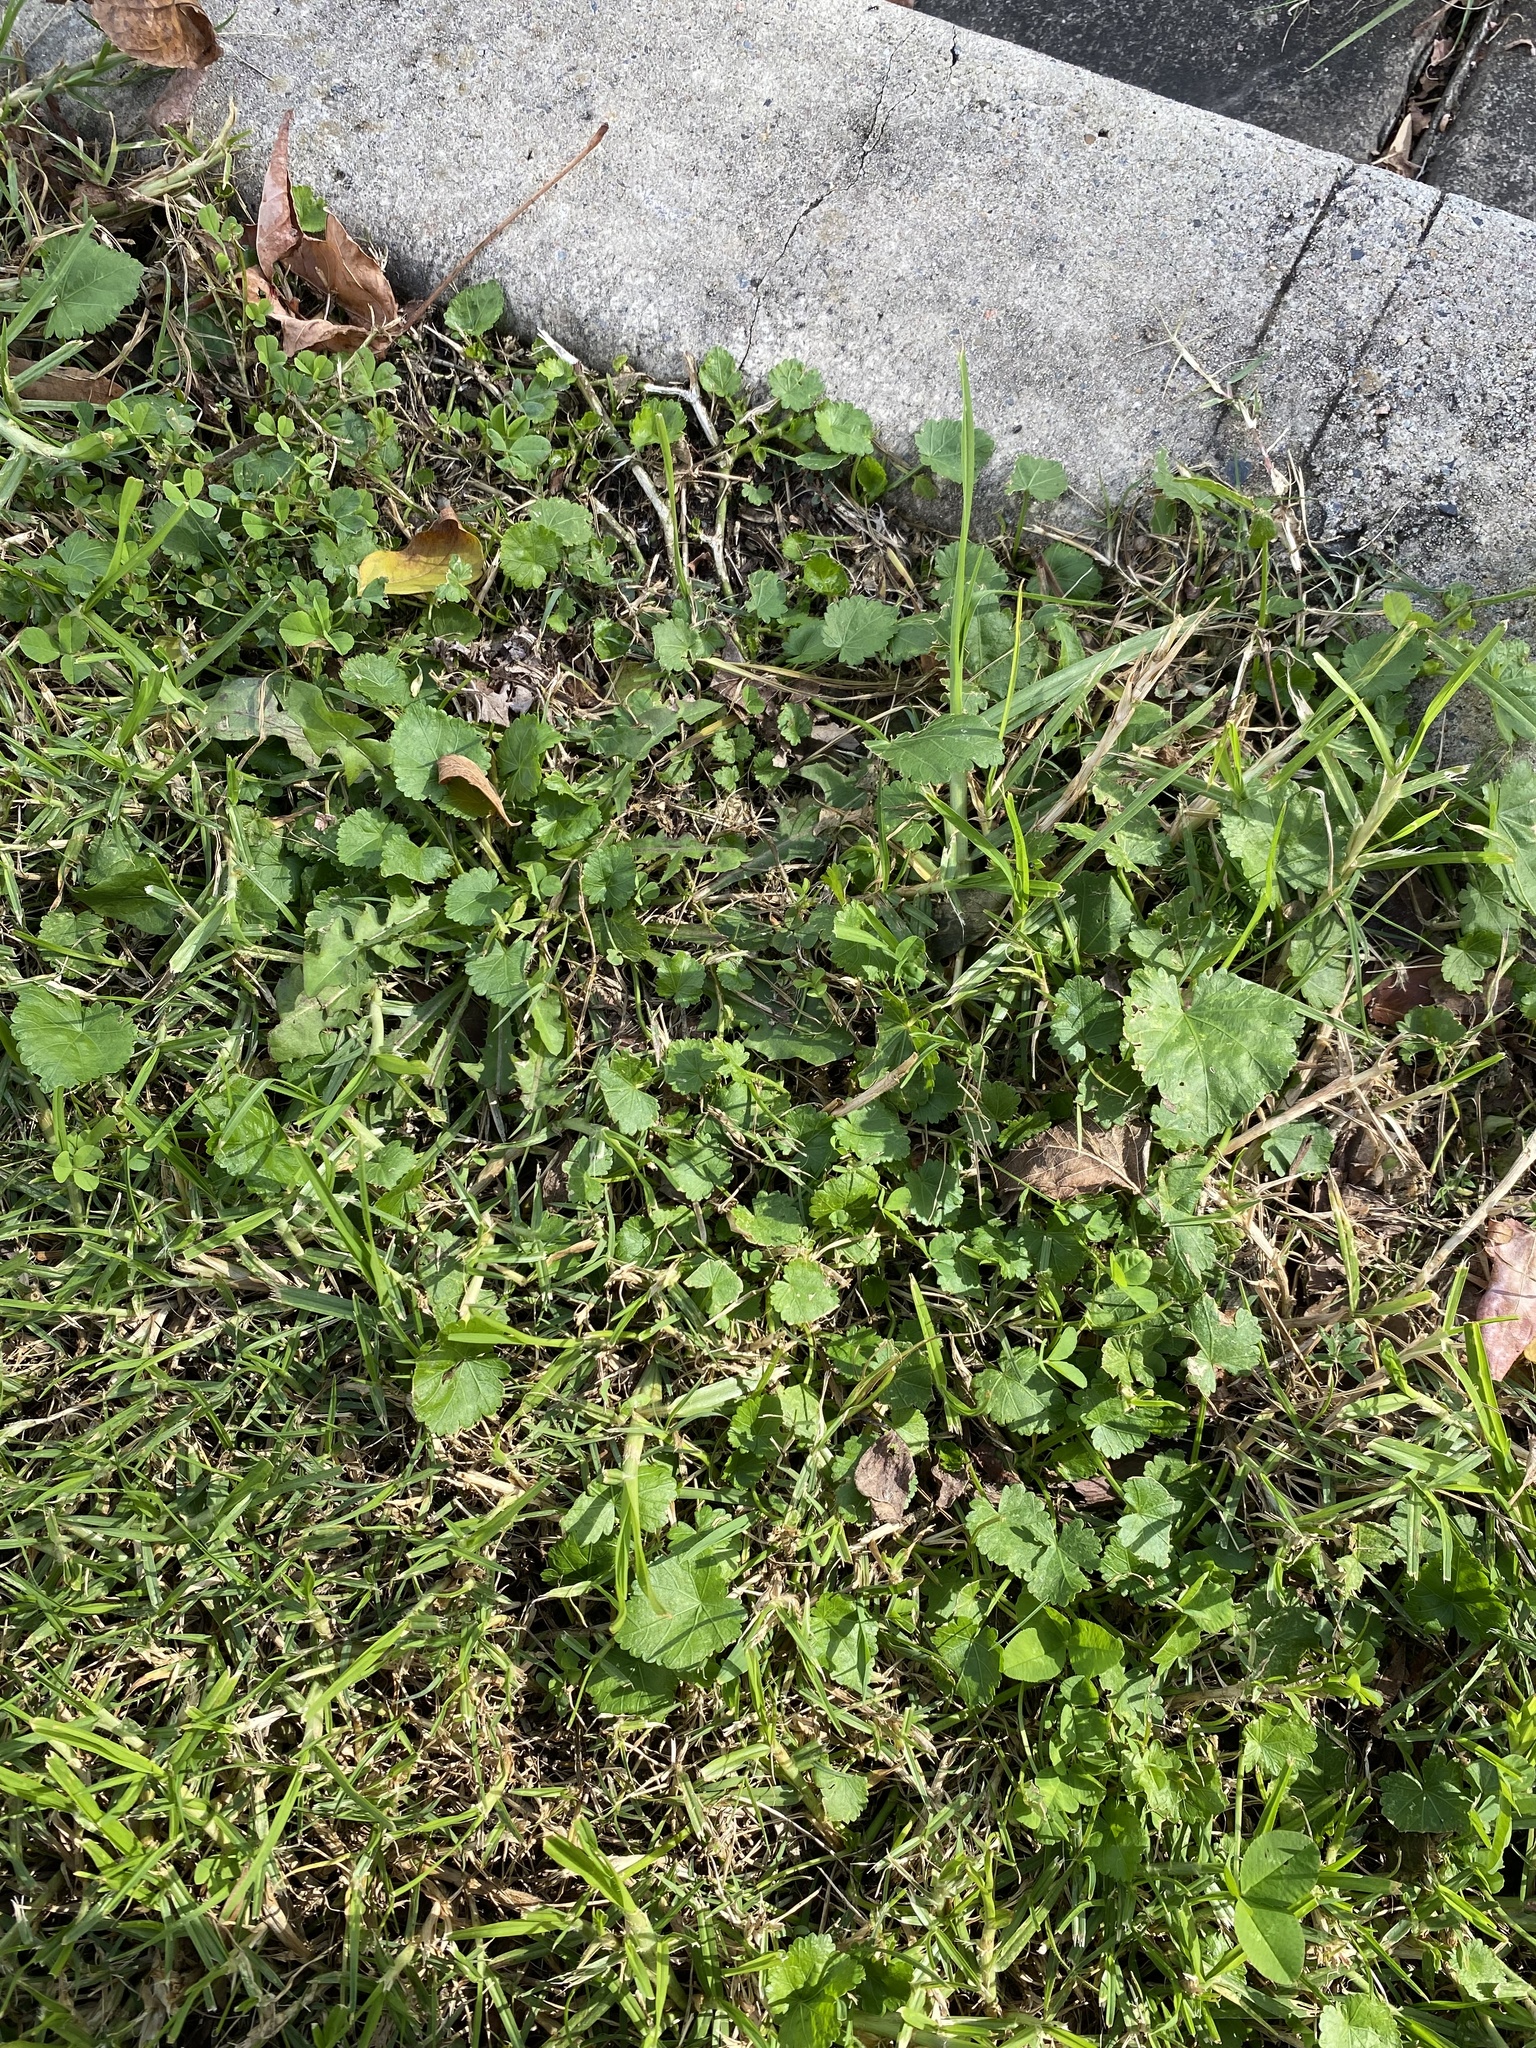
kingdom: Plantae
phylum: Tracheophyta
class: Magnoliopsida
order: Malvales
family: Malvaceae
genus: Modiola
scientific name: Modiola caroliniana
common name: Carolina bristlemallow
